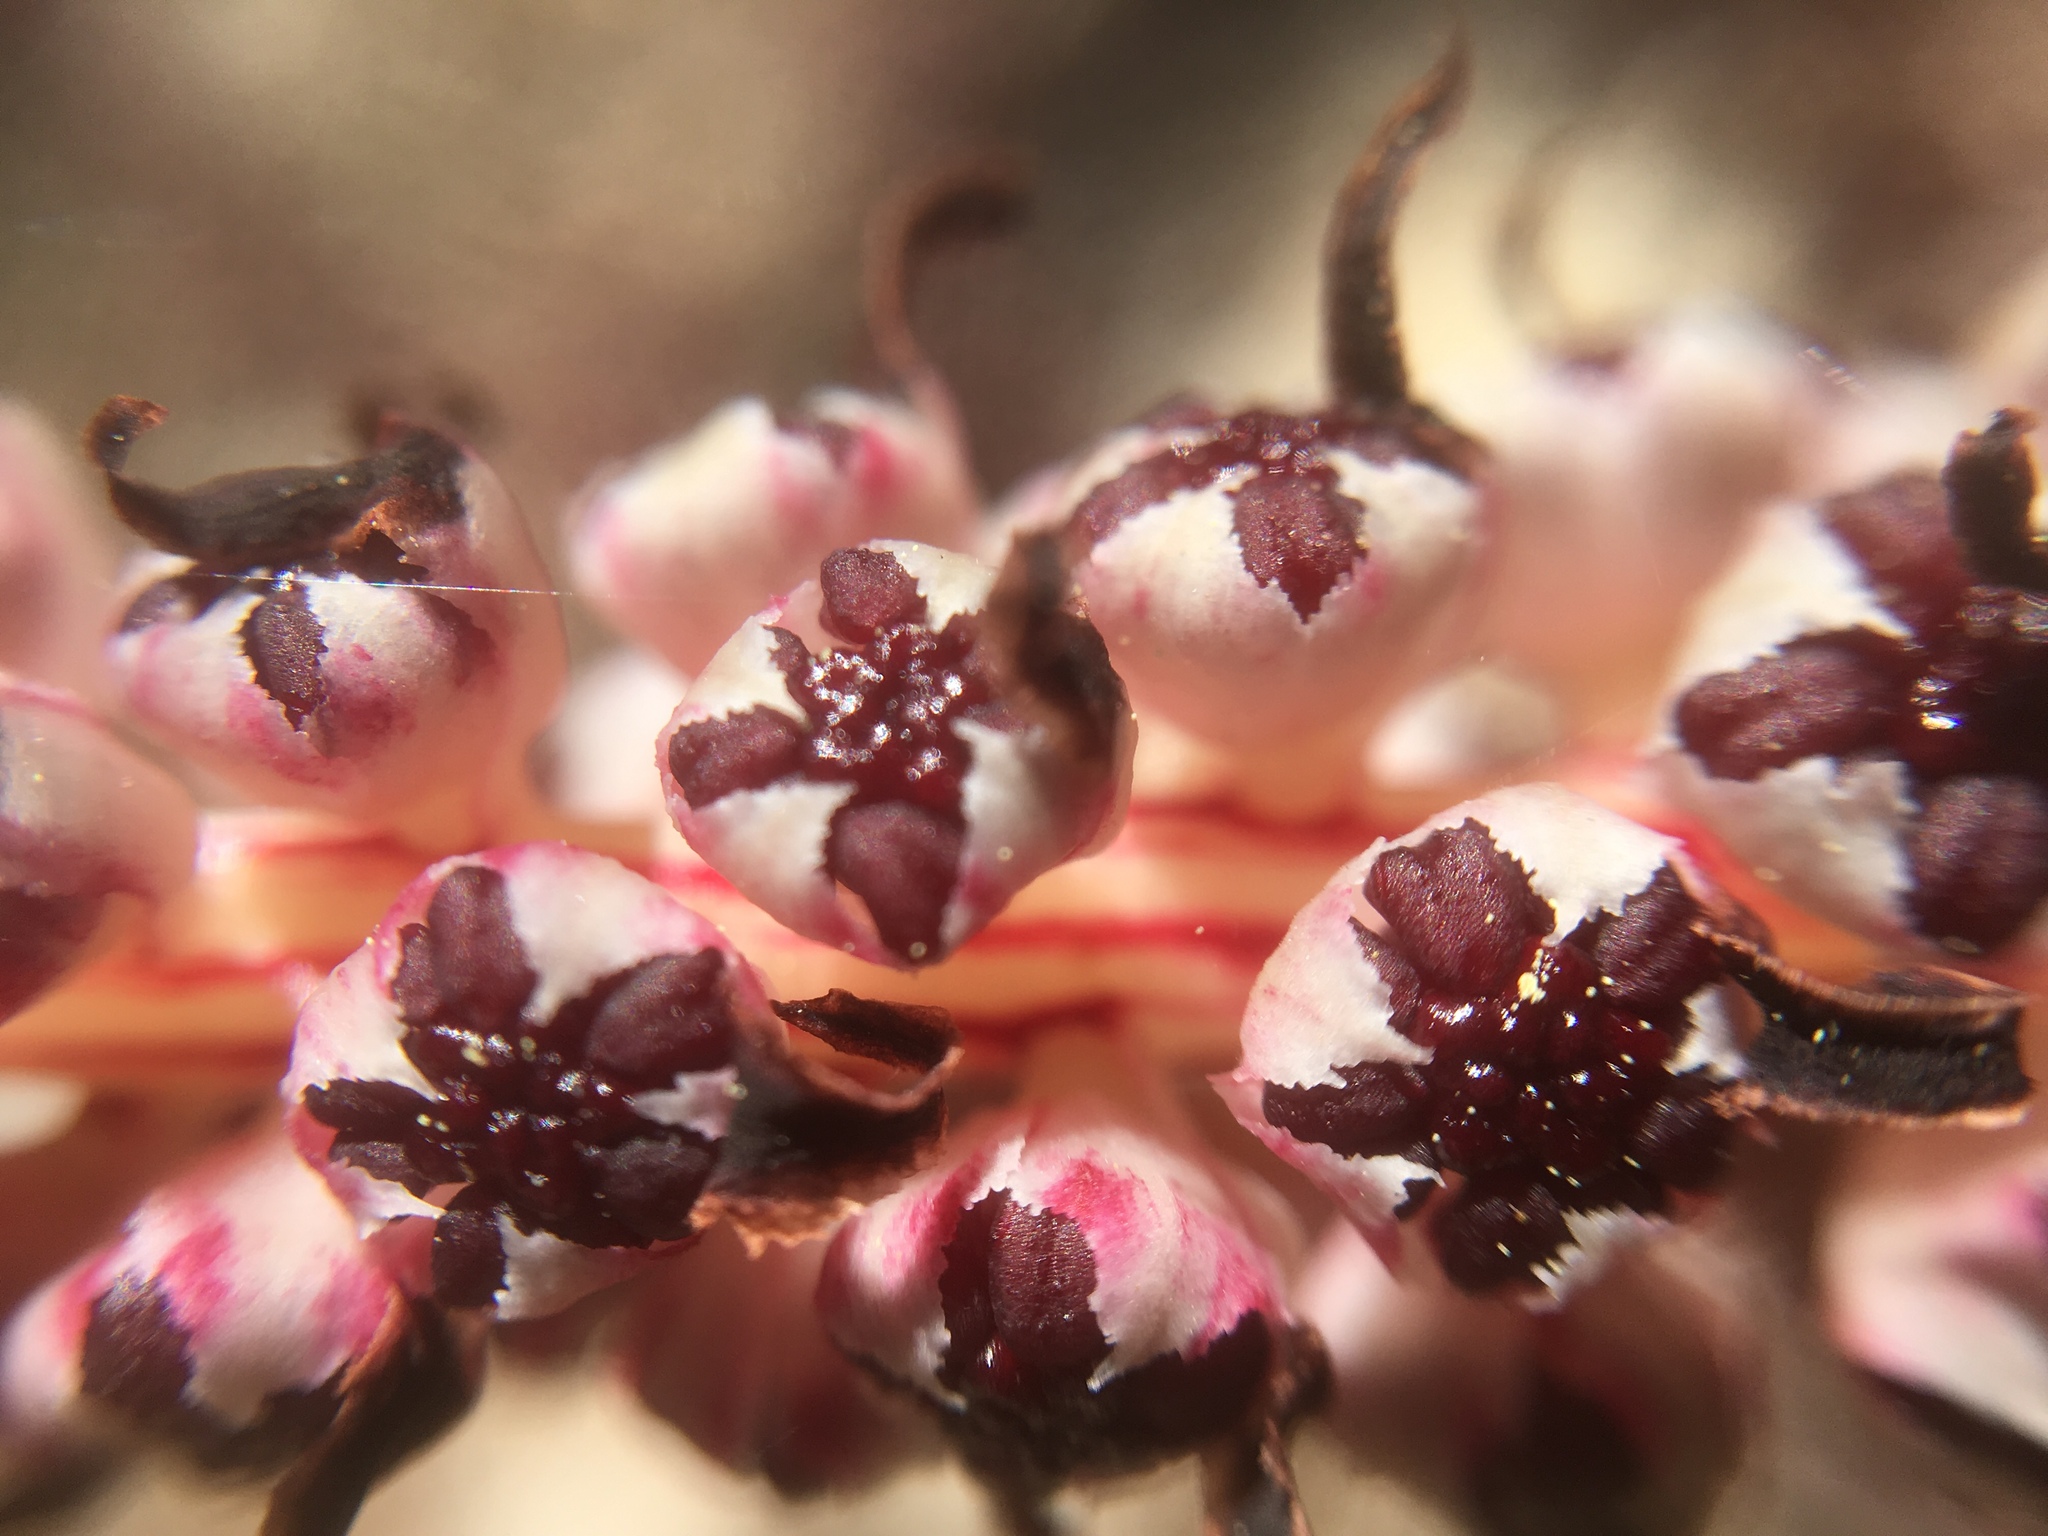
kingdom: Plantae
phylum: Tracheophyta
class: Magnoliopsida
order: Ericales
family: Ericaceae
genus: Allotropa
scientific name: Allotropa virgata
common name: Candy-striped allotropa
